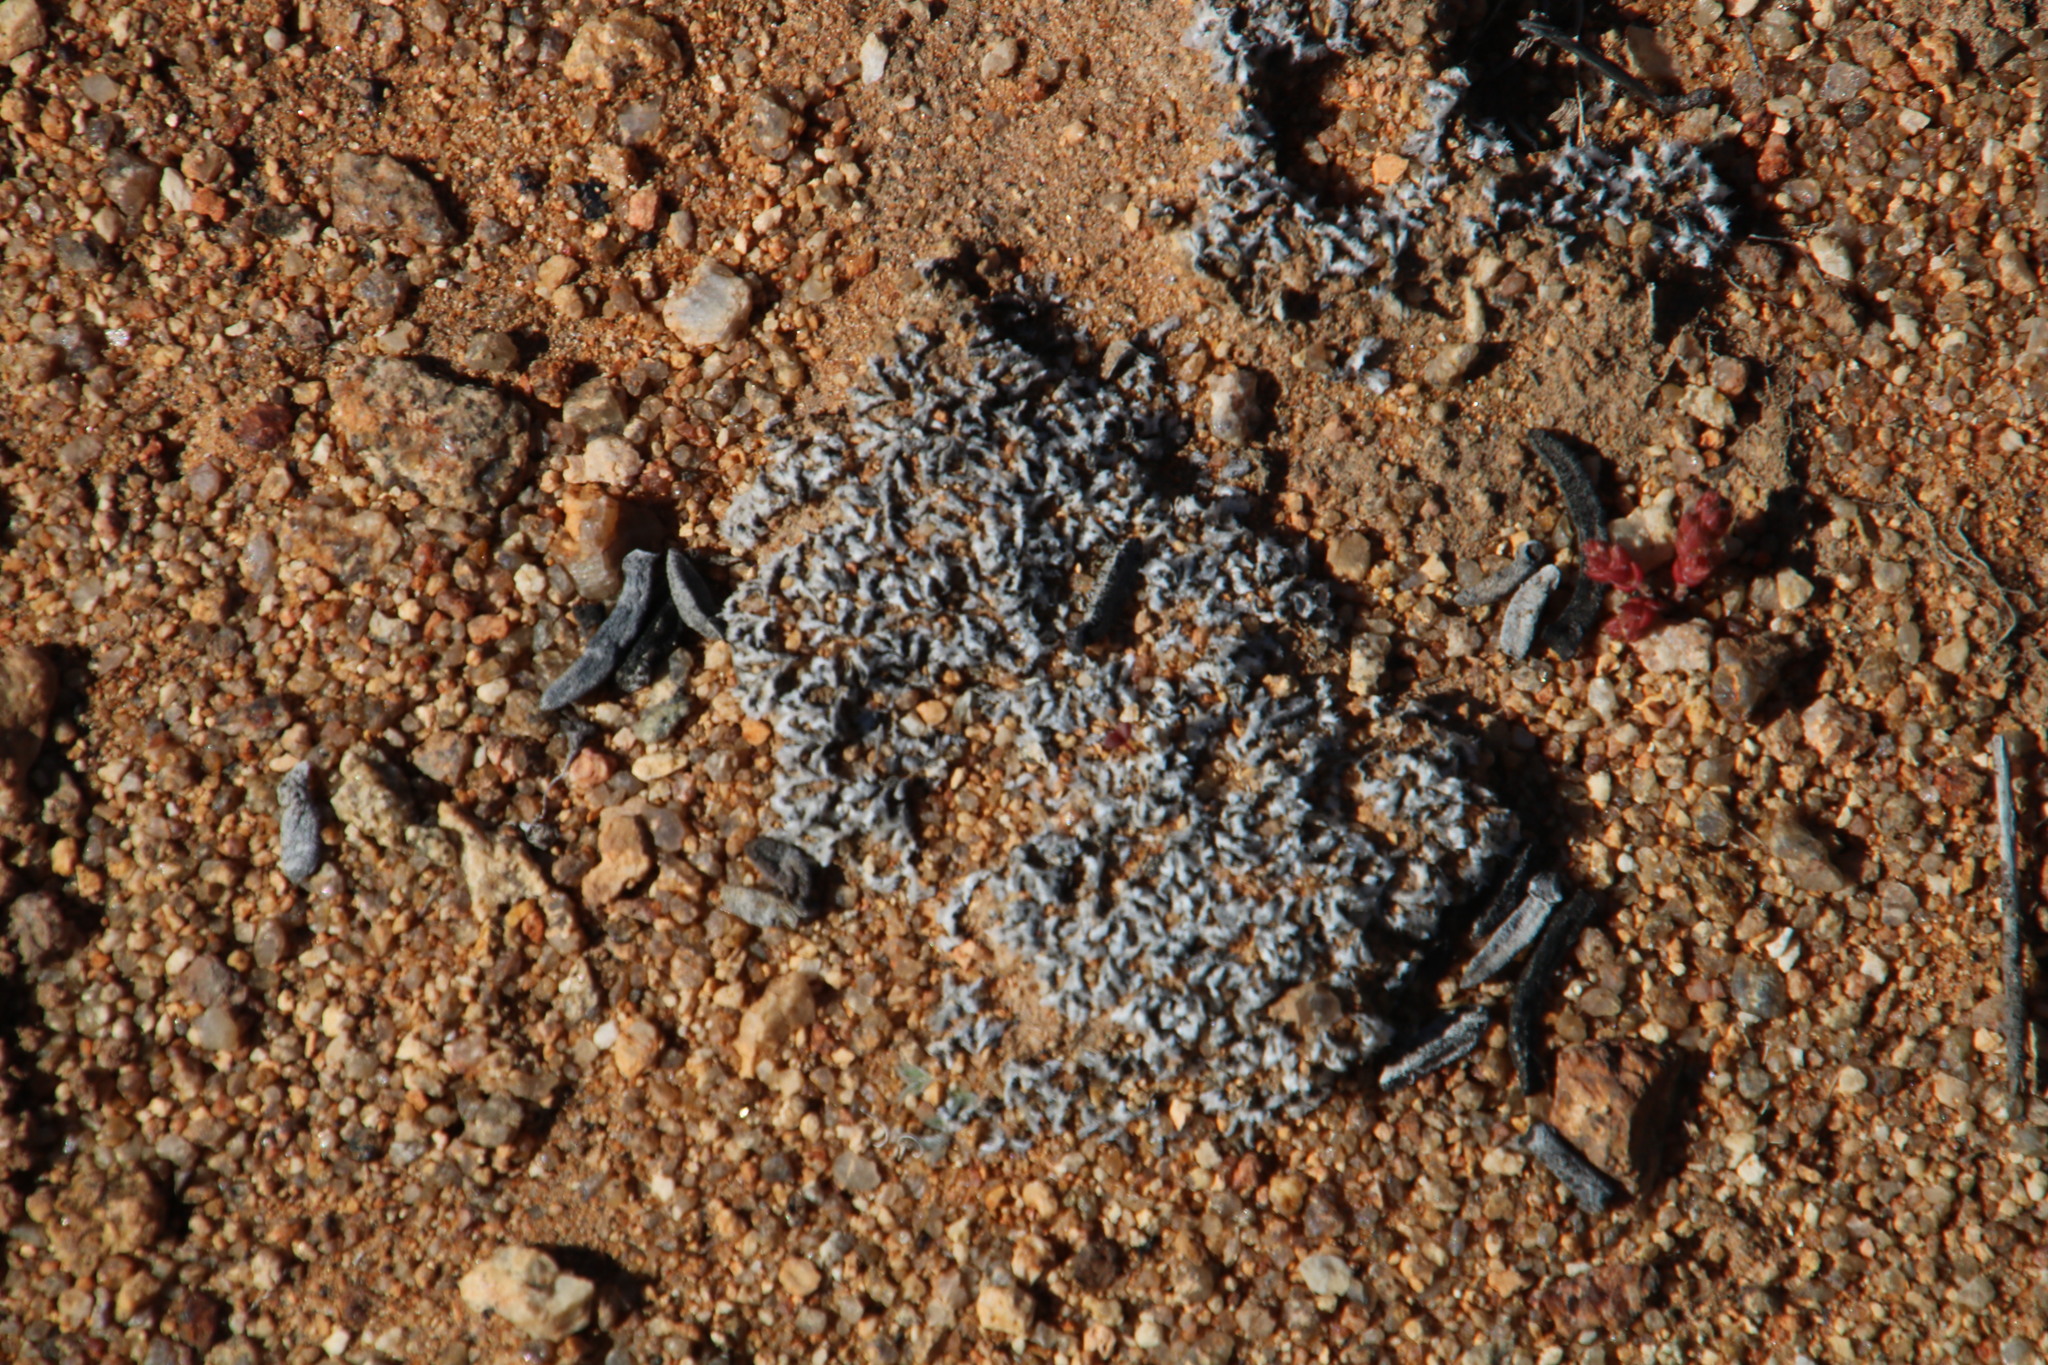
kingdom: Plantae
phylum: Tracheophyta
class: Magnoliopsida
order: Asterales
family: Campanulaceae
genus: Wahlenbergia
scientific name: Wahlenbergia acaulis
